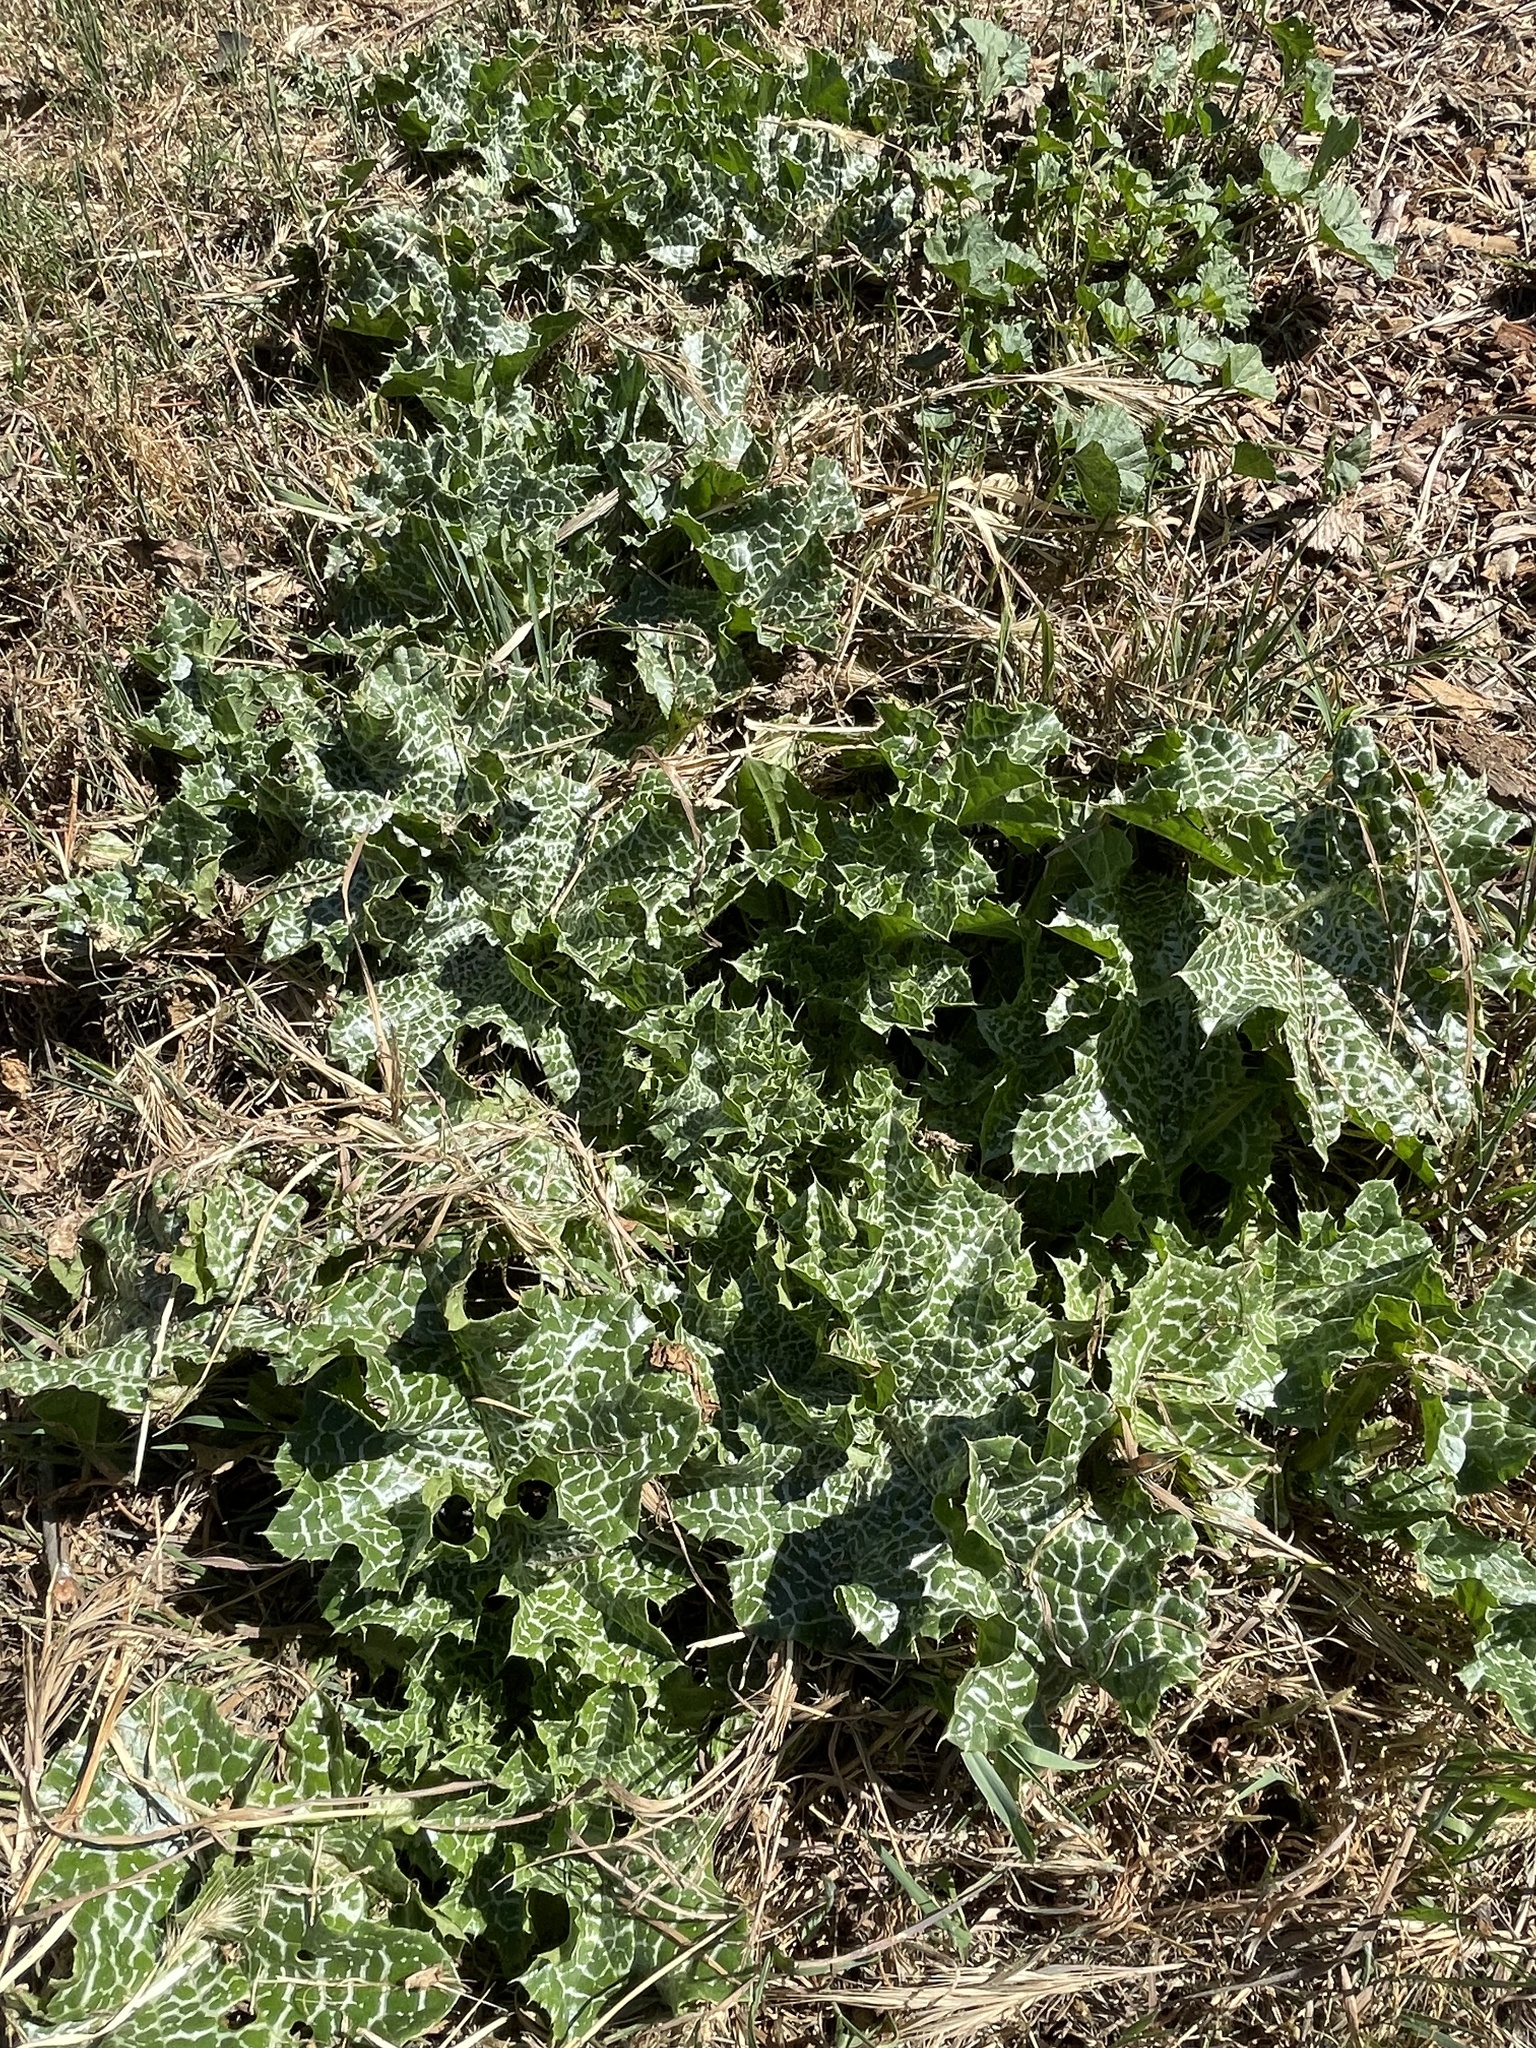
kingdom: Plantae
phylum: Tracheophyta
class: Magnoliopsida
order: Asterales
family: Asteraceae
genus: Silybum
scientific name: Silybum marianum
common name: Milk thistle
